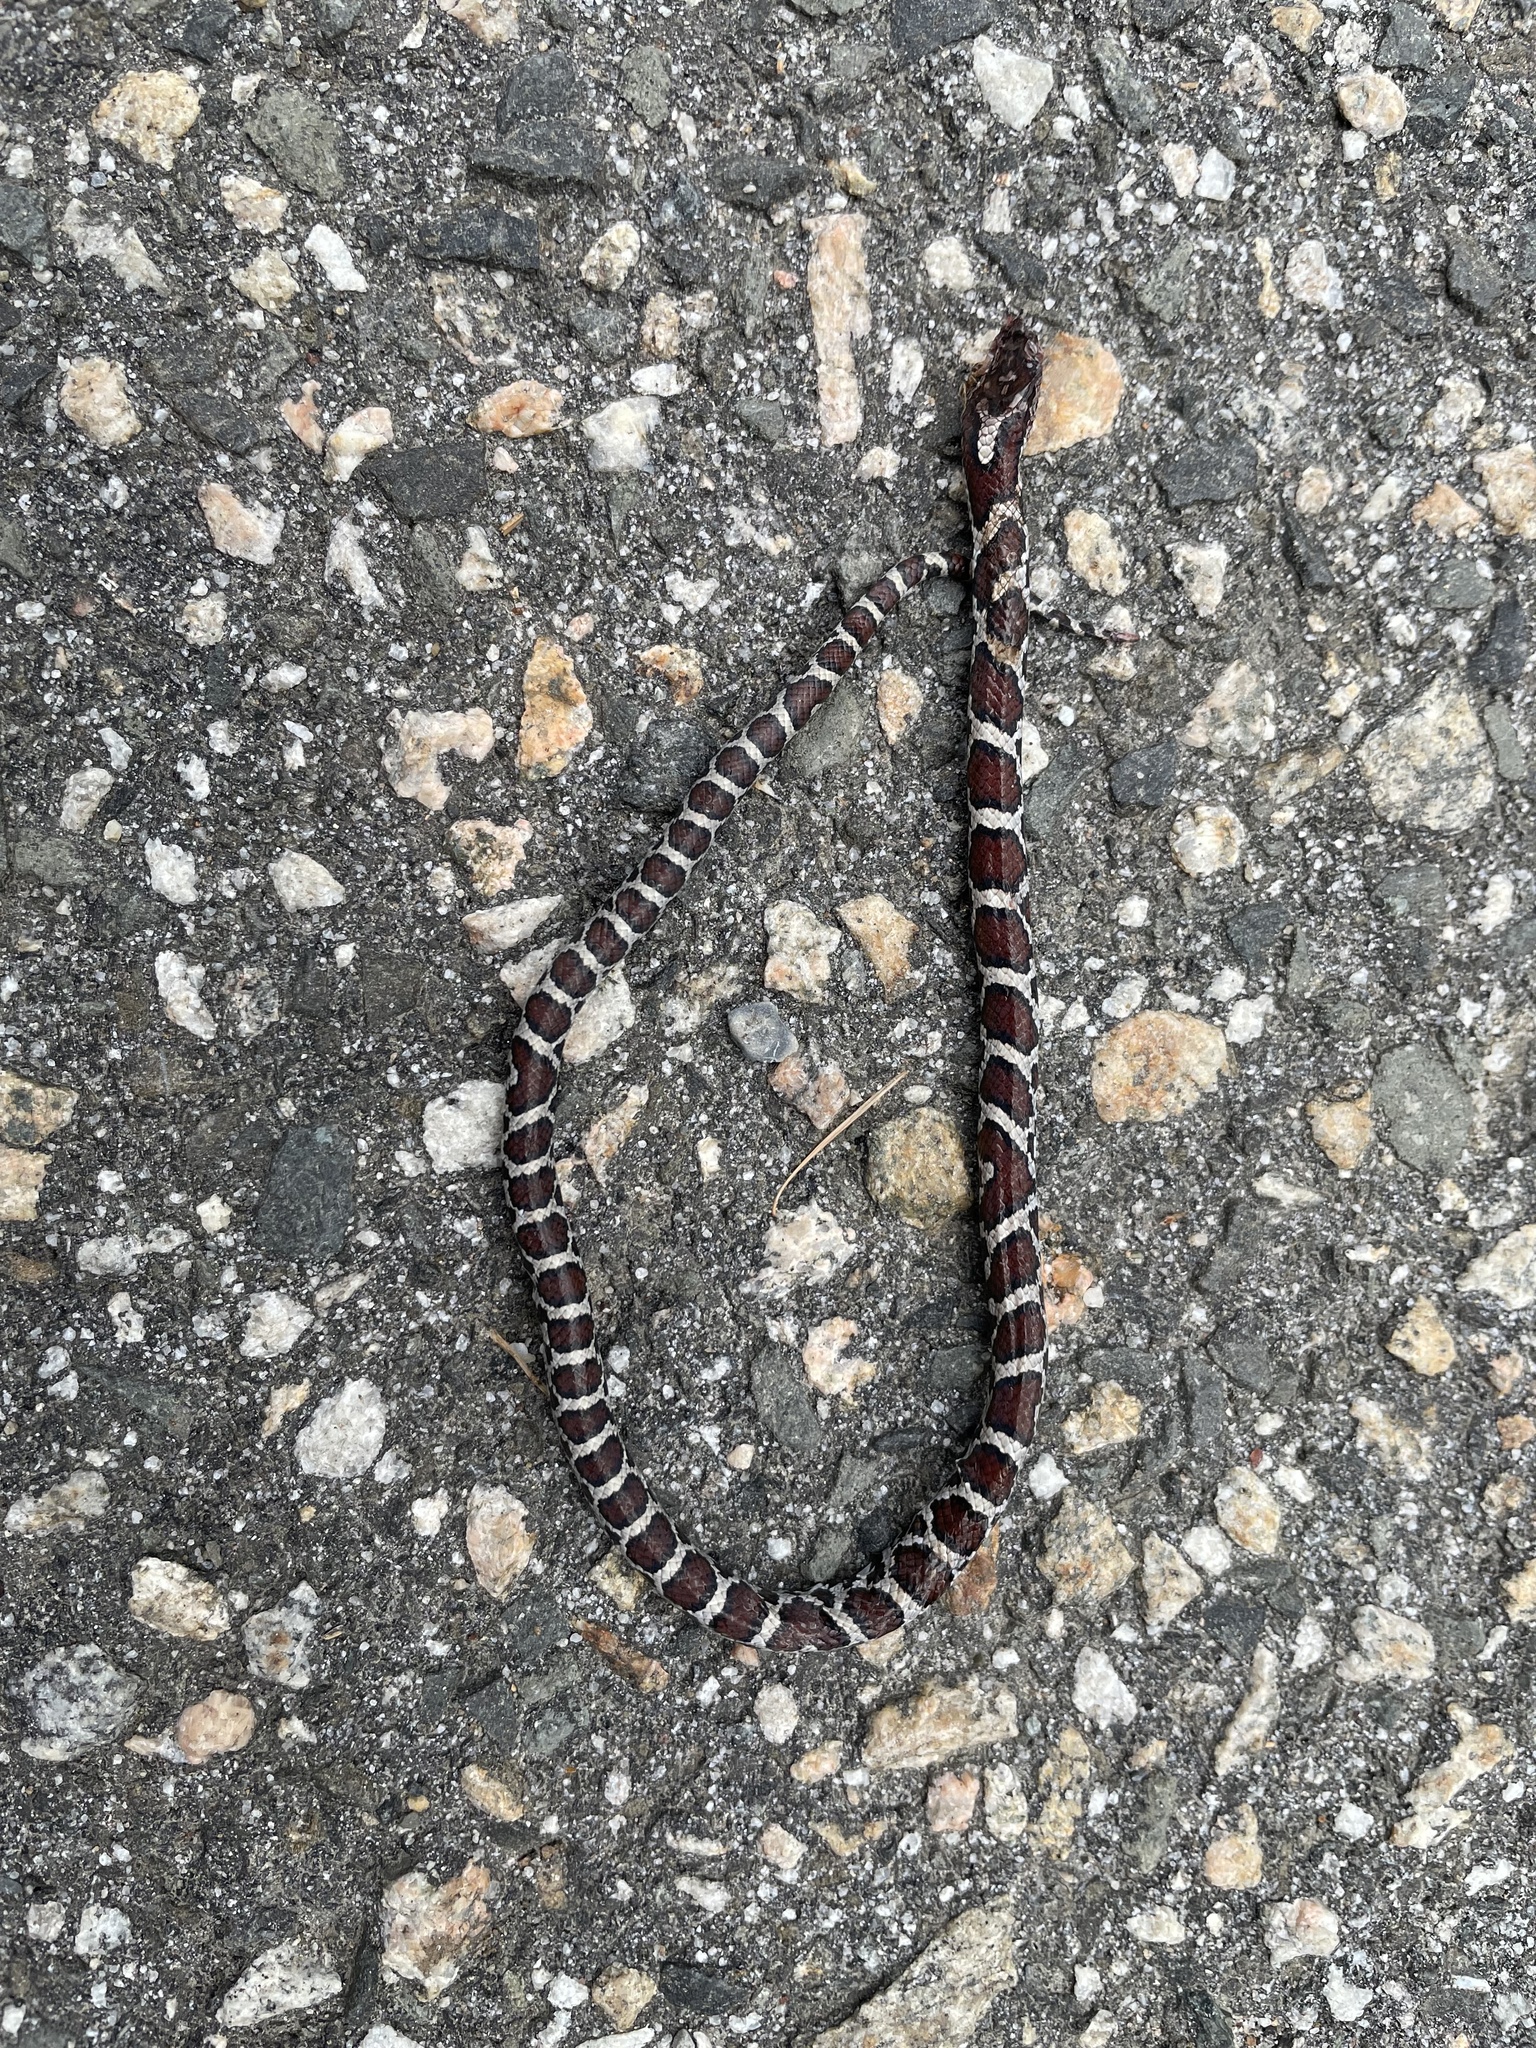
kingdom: Animalia
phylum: Chordata
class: Squamata
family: Colubridae
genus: Lampropeltis
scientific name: Lampropeltis triangulum
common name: Eastern milksnake
